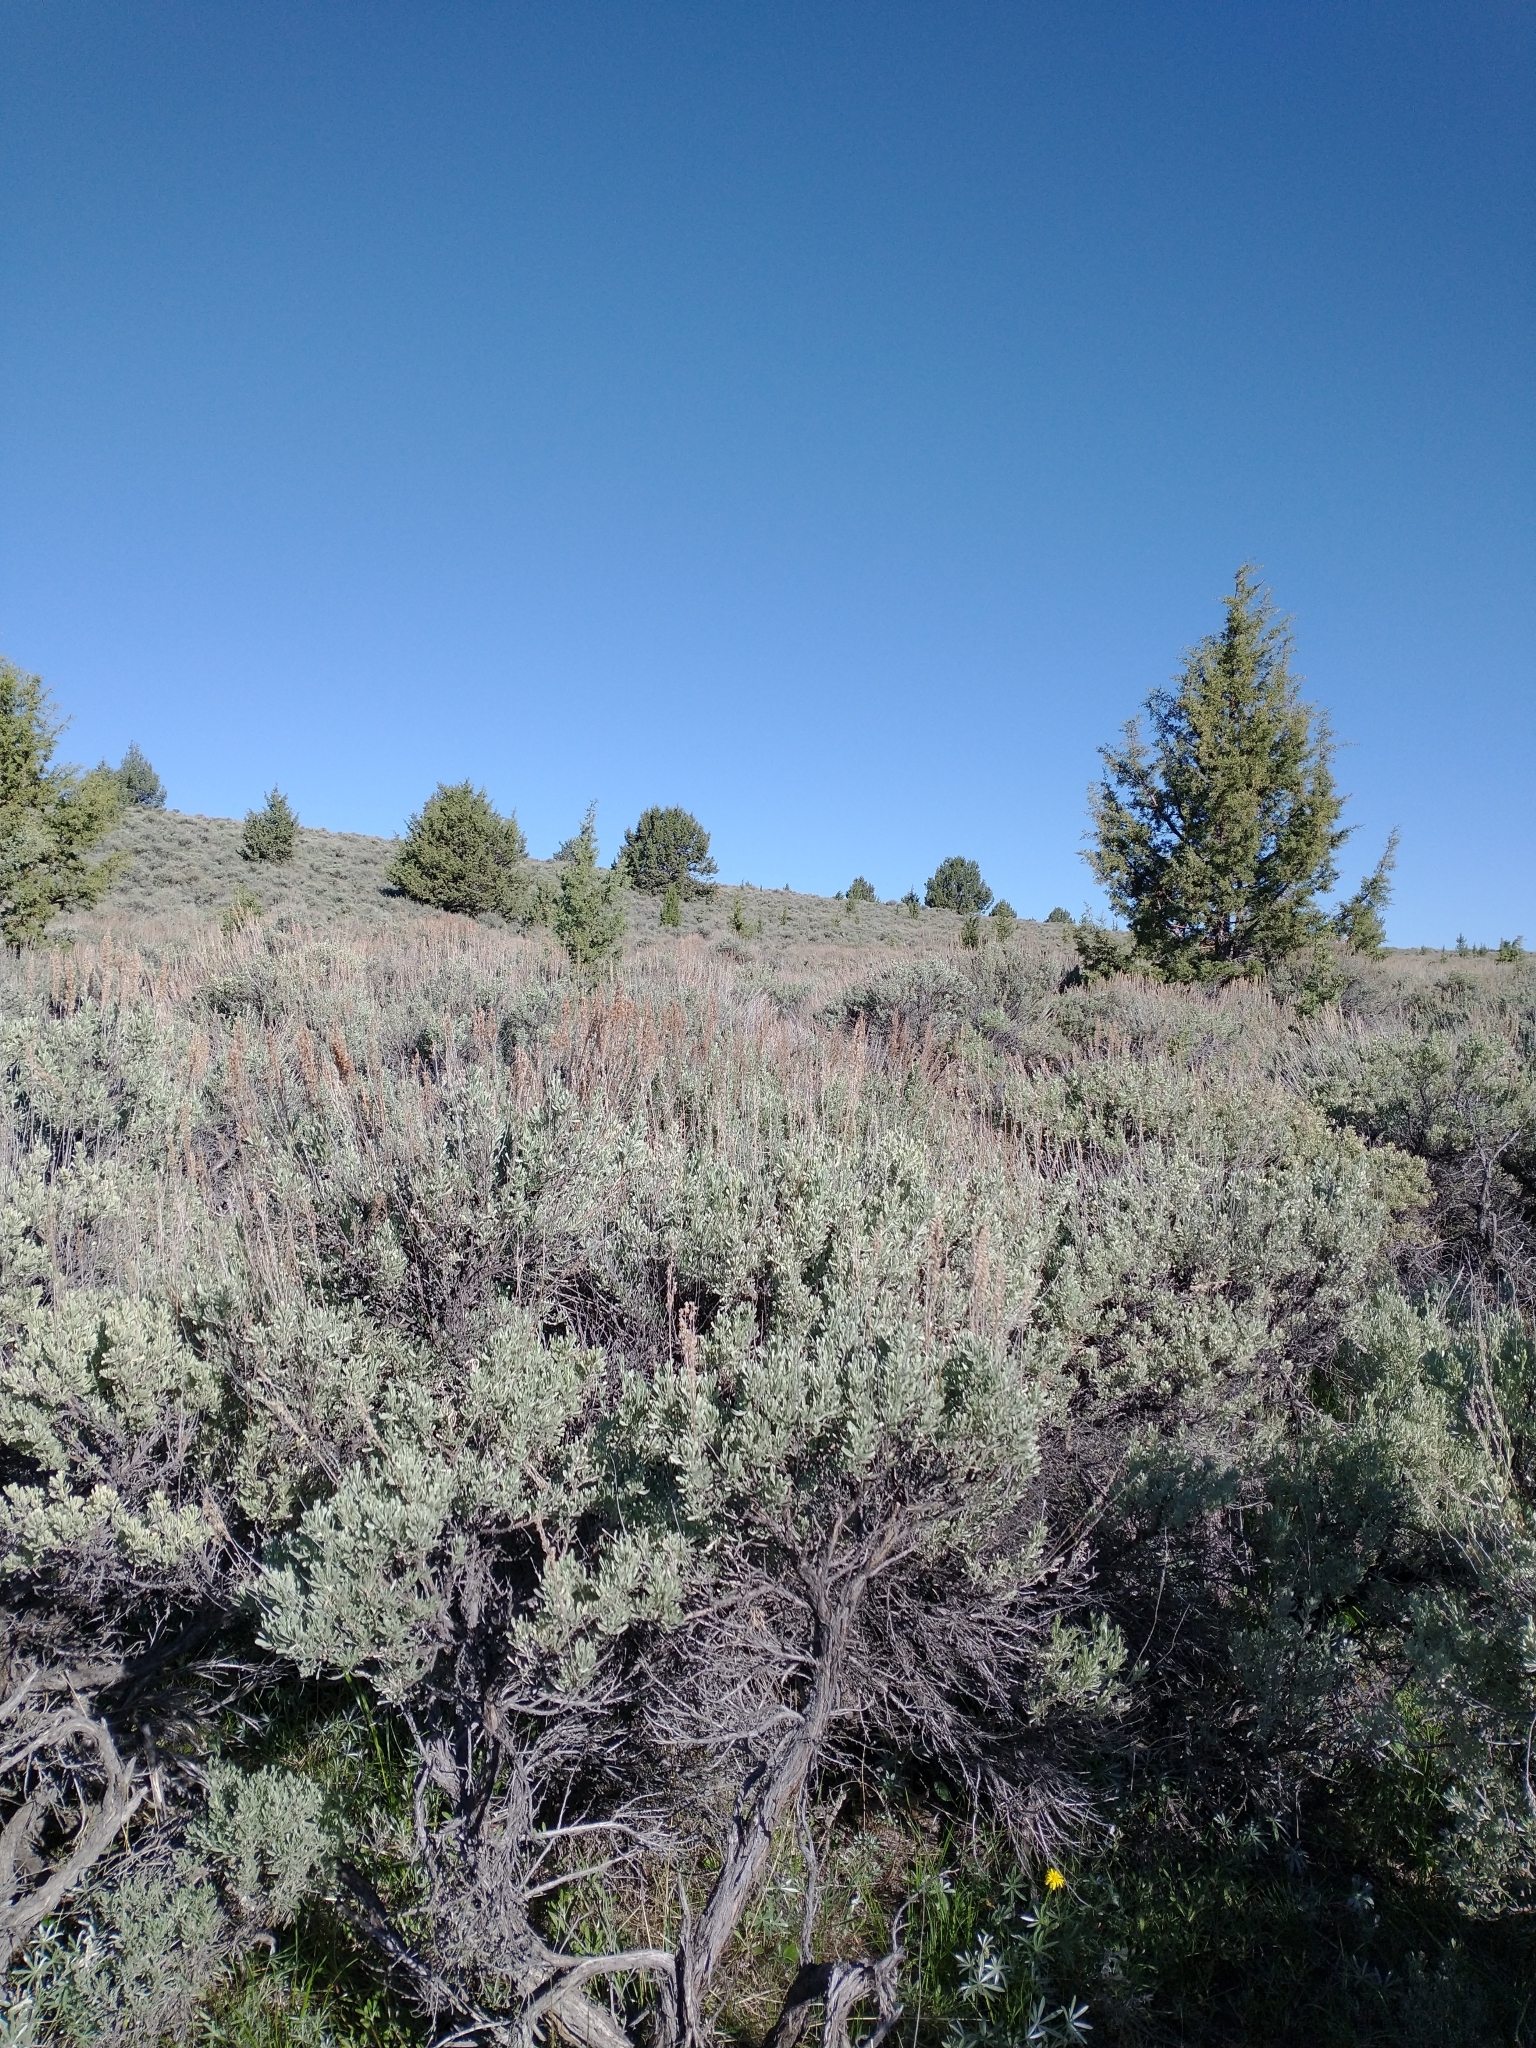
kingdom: Plantae
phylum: Tracheophyta
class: Pinopsida
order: Pinales
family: Cupressaceae
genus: Juniperus
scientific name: Juniperus occidentalis
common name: Western juniper
